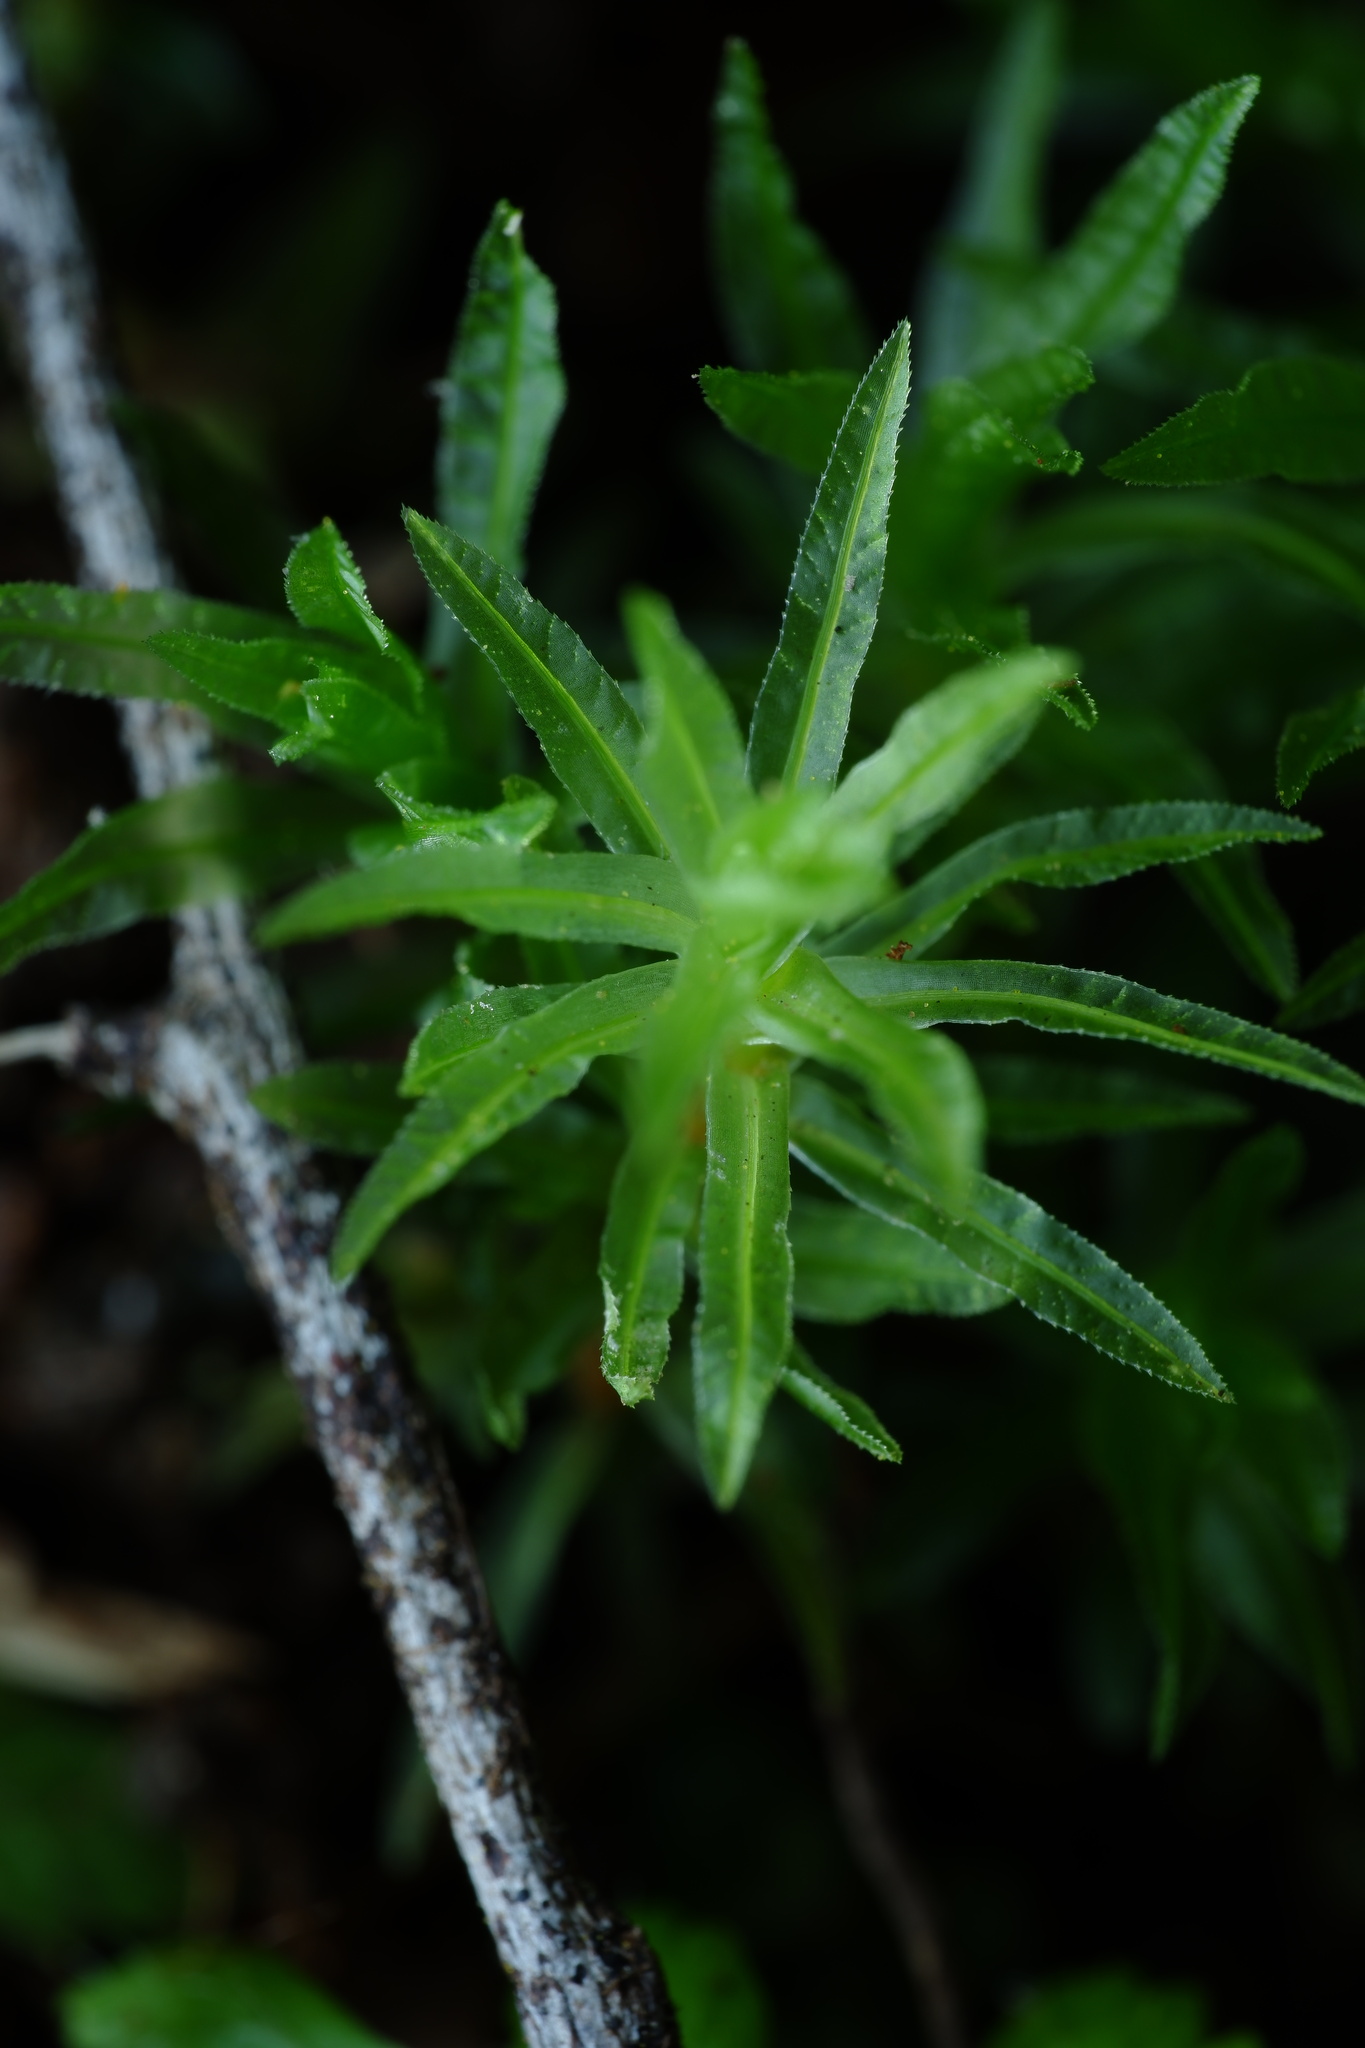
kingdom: Plantae
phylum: Bryophyta
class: Polytrichopsida
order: Polytrichales
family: Polytrichaceae
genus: Atrichum
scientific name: Atrichum androgynum
